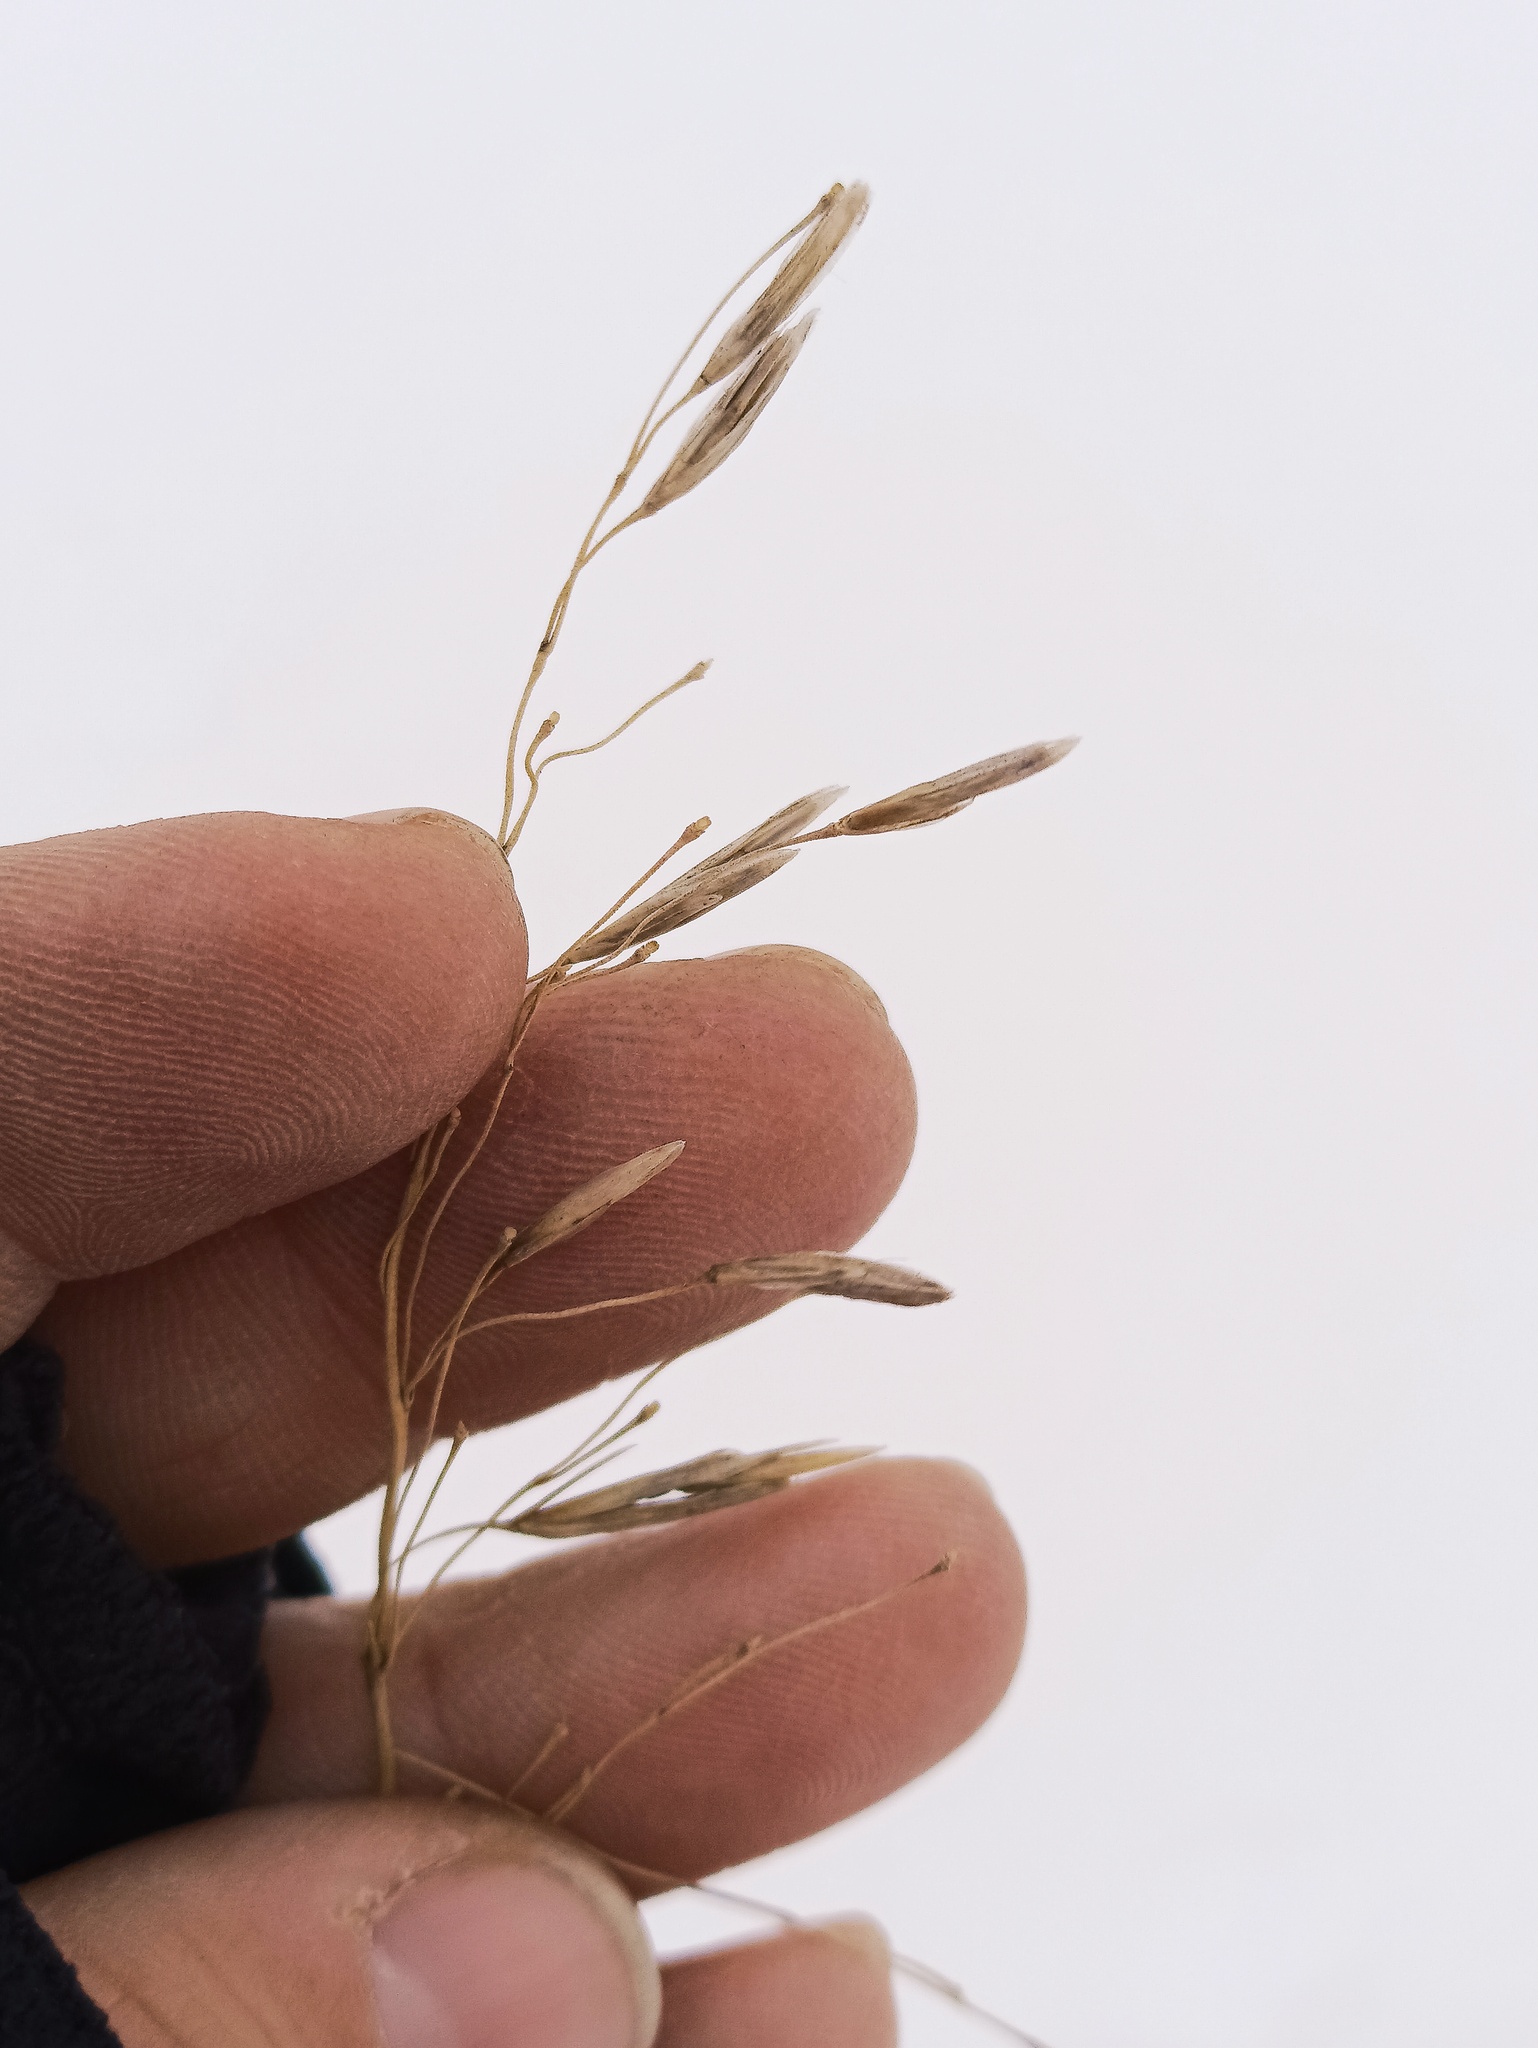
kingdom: Plantae
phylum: Tracheophyta
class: Liliopsida
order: Poales
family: Poaceae
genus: Bromus
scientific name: Bromus inermis
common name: Smooth brome
